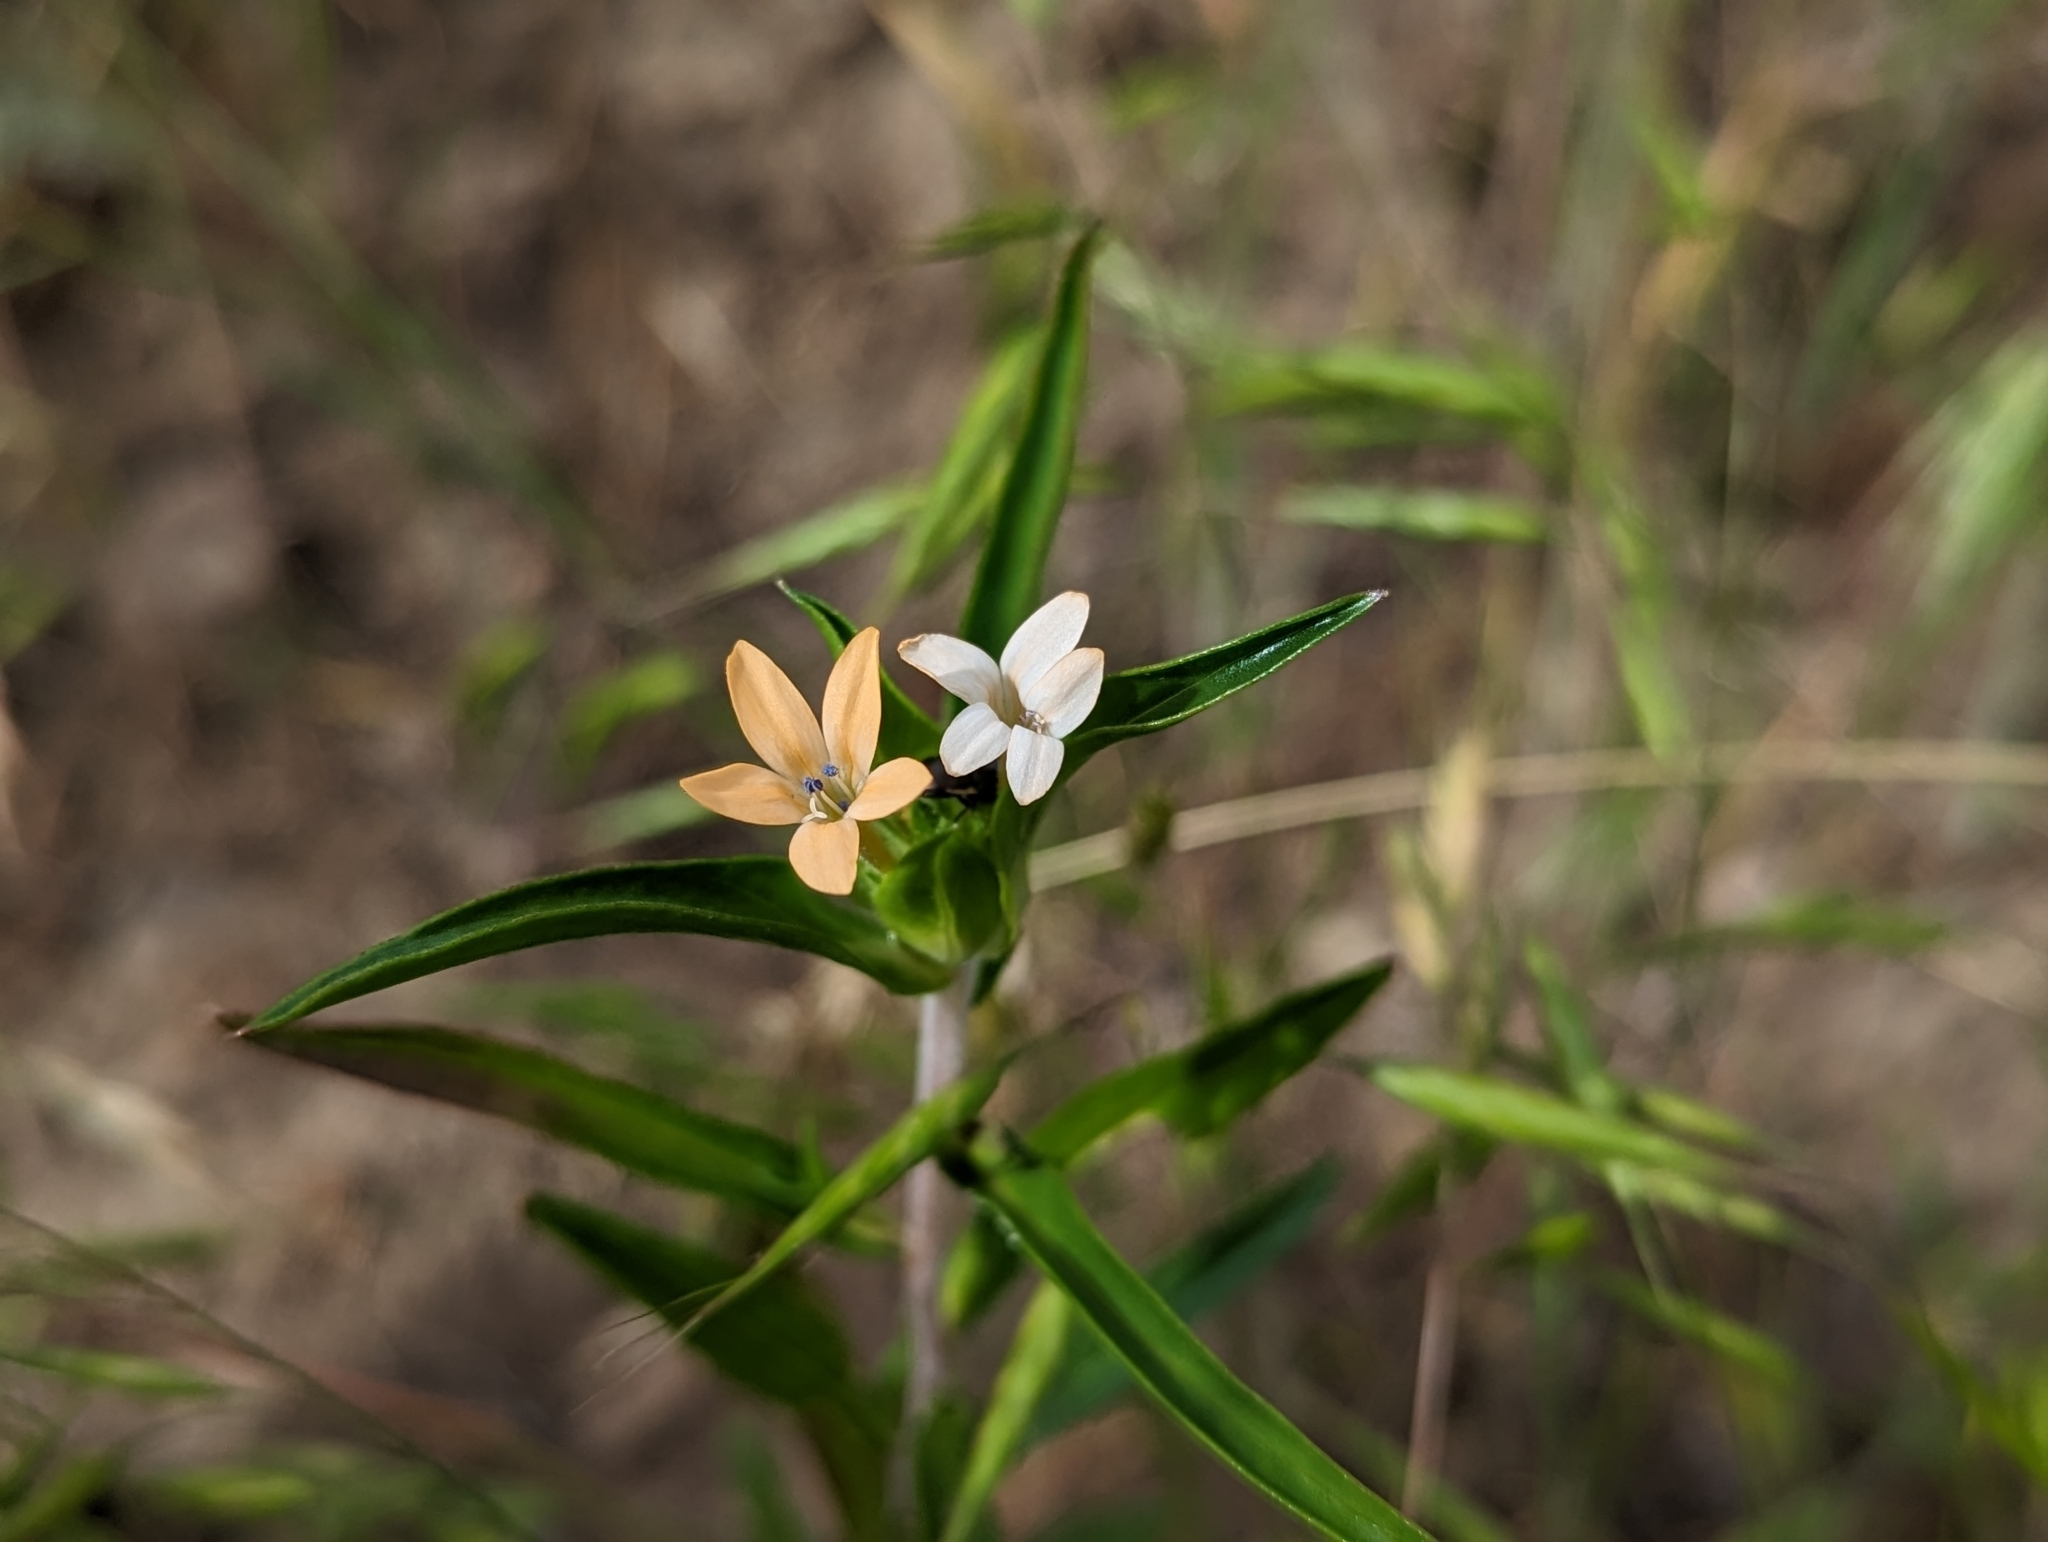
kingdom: Plantae
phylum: Tracheophyta
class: Magnoliopsida
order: Ericales
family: Polemoniaceae
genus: Collomia
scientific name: Collomia grandiflora
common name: California strawflower
